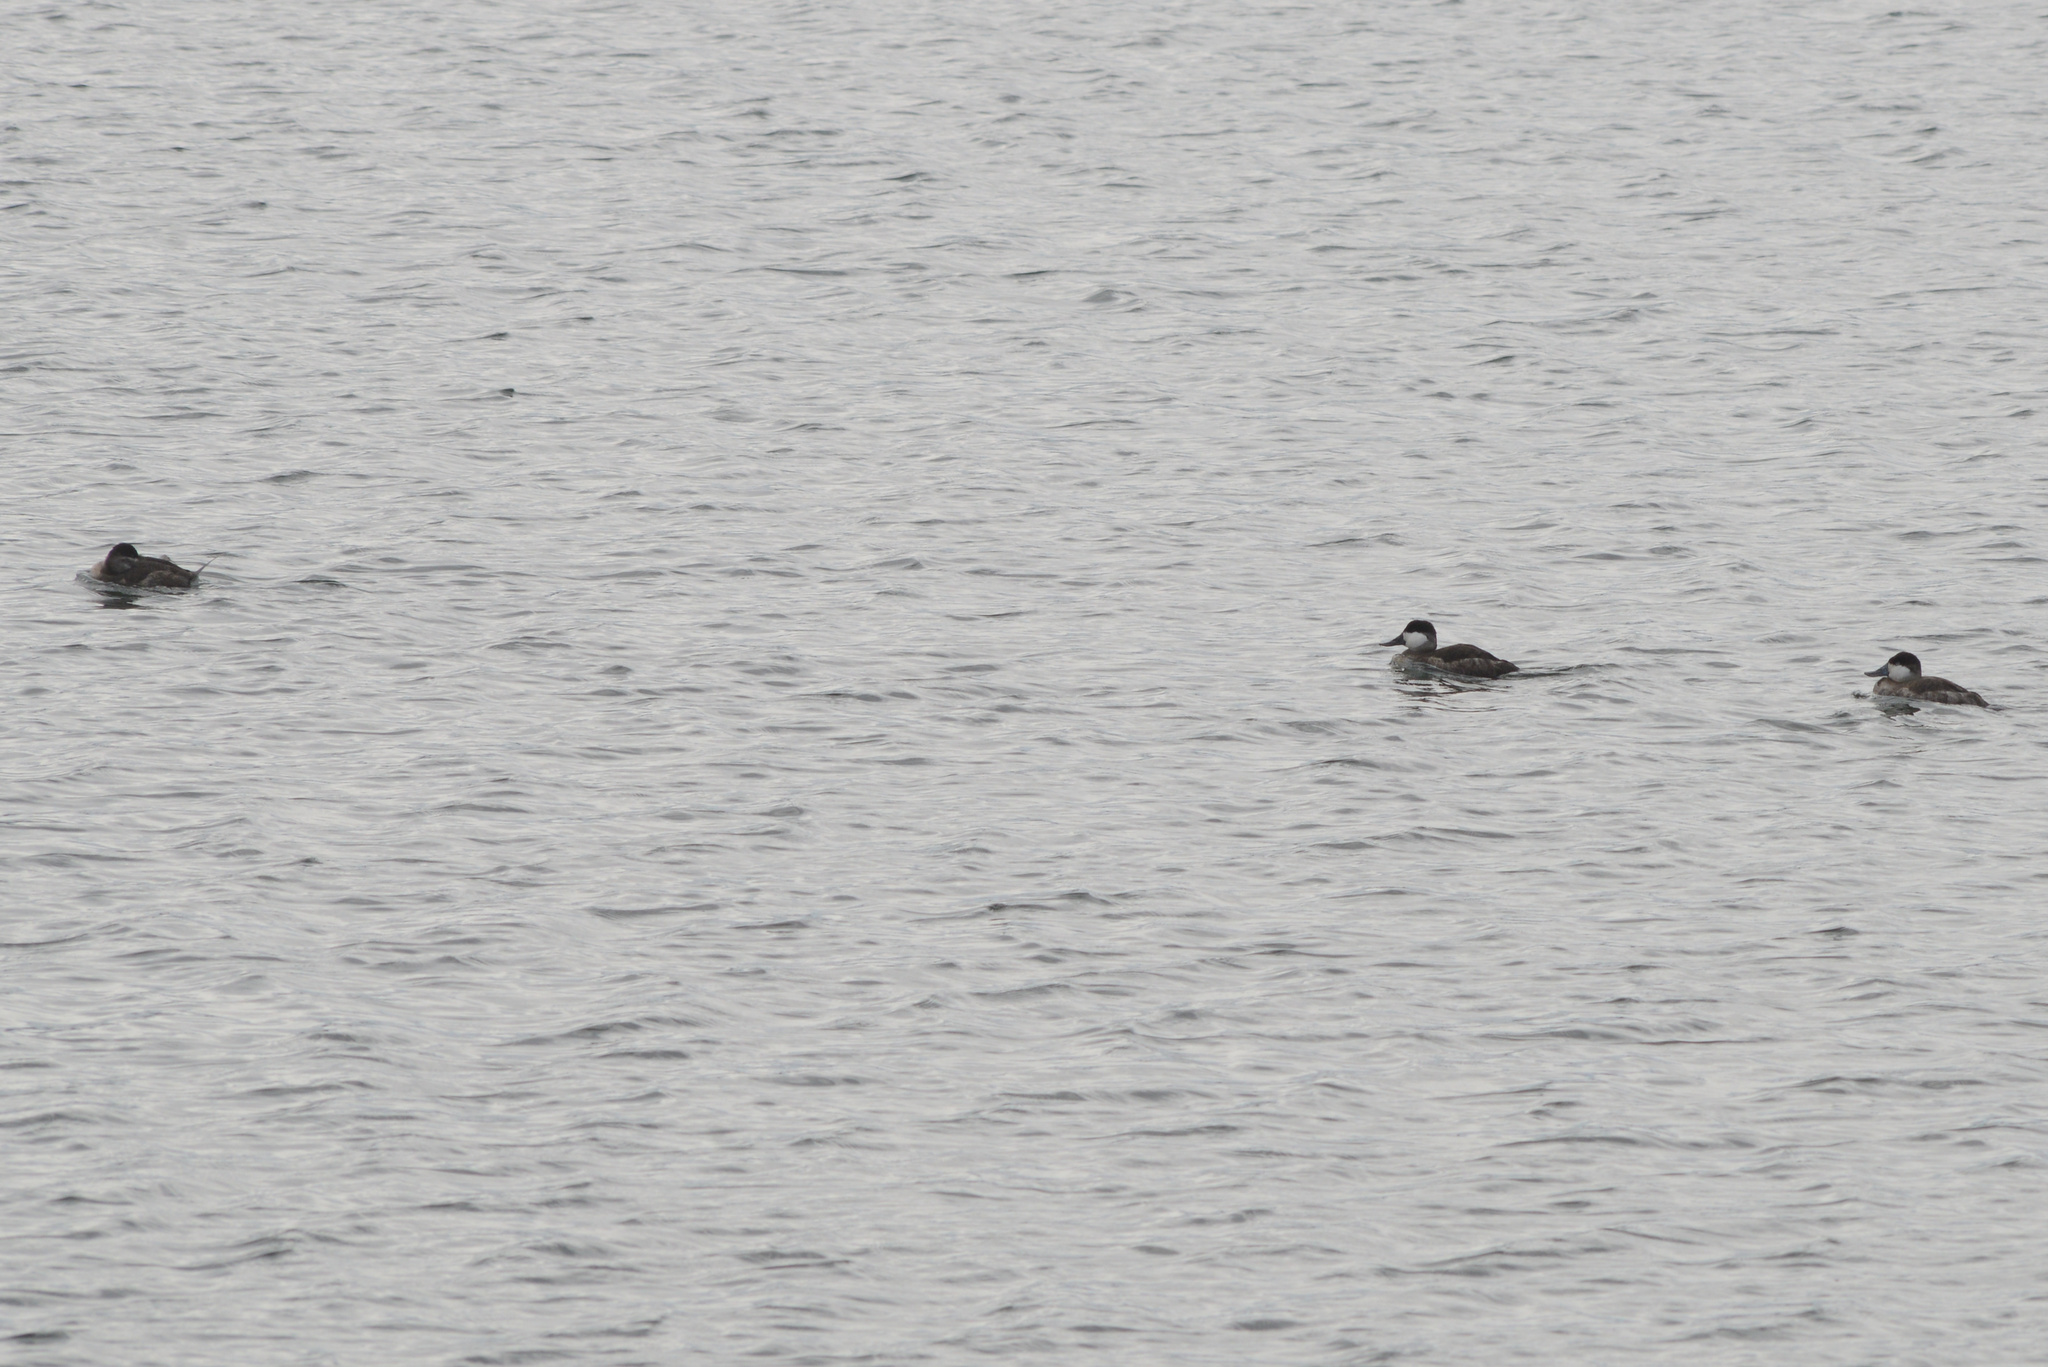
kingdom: Animalia
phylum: Chordata
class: Aves
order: Anseriformes
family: Anatidae
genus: Oxyura
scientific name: Oxyura jamaicensis
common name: Ruddy duck
